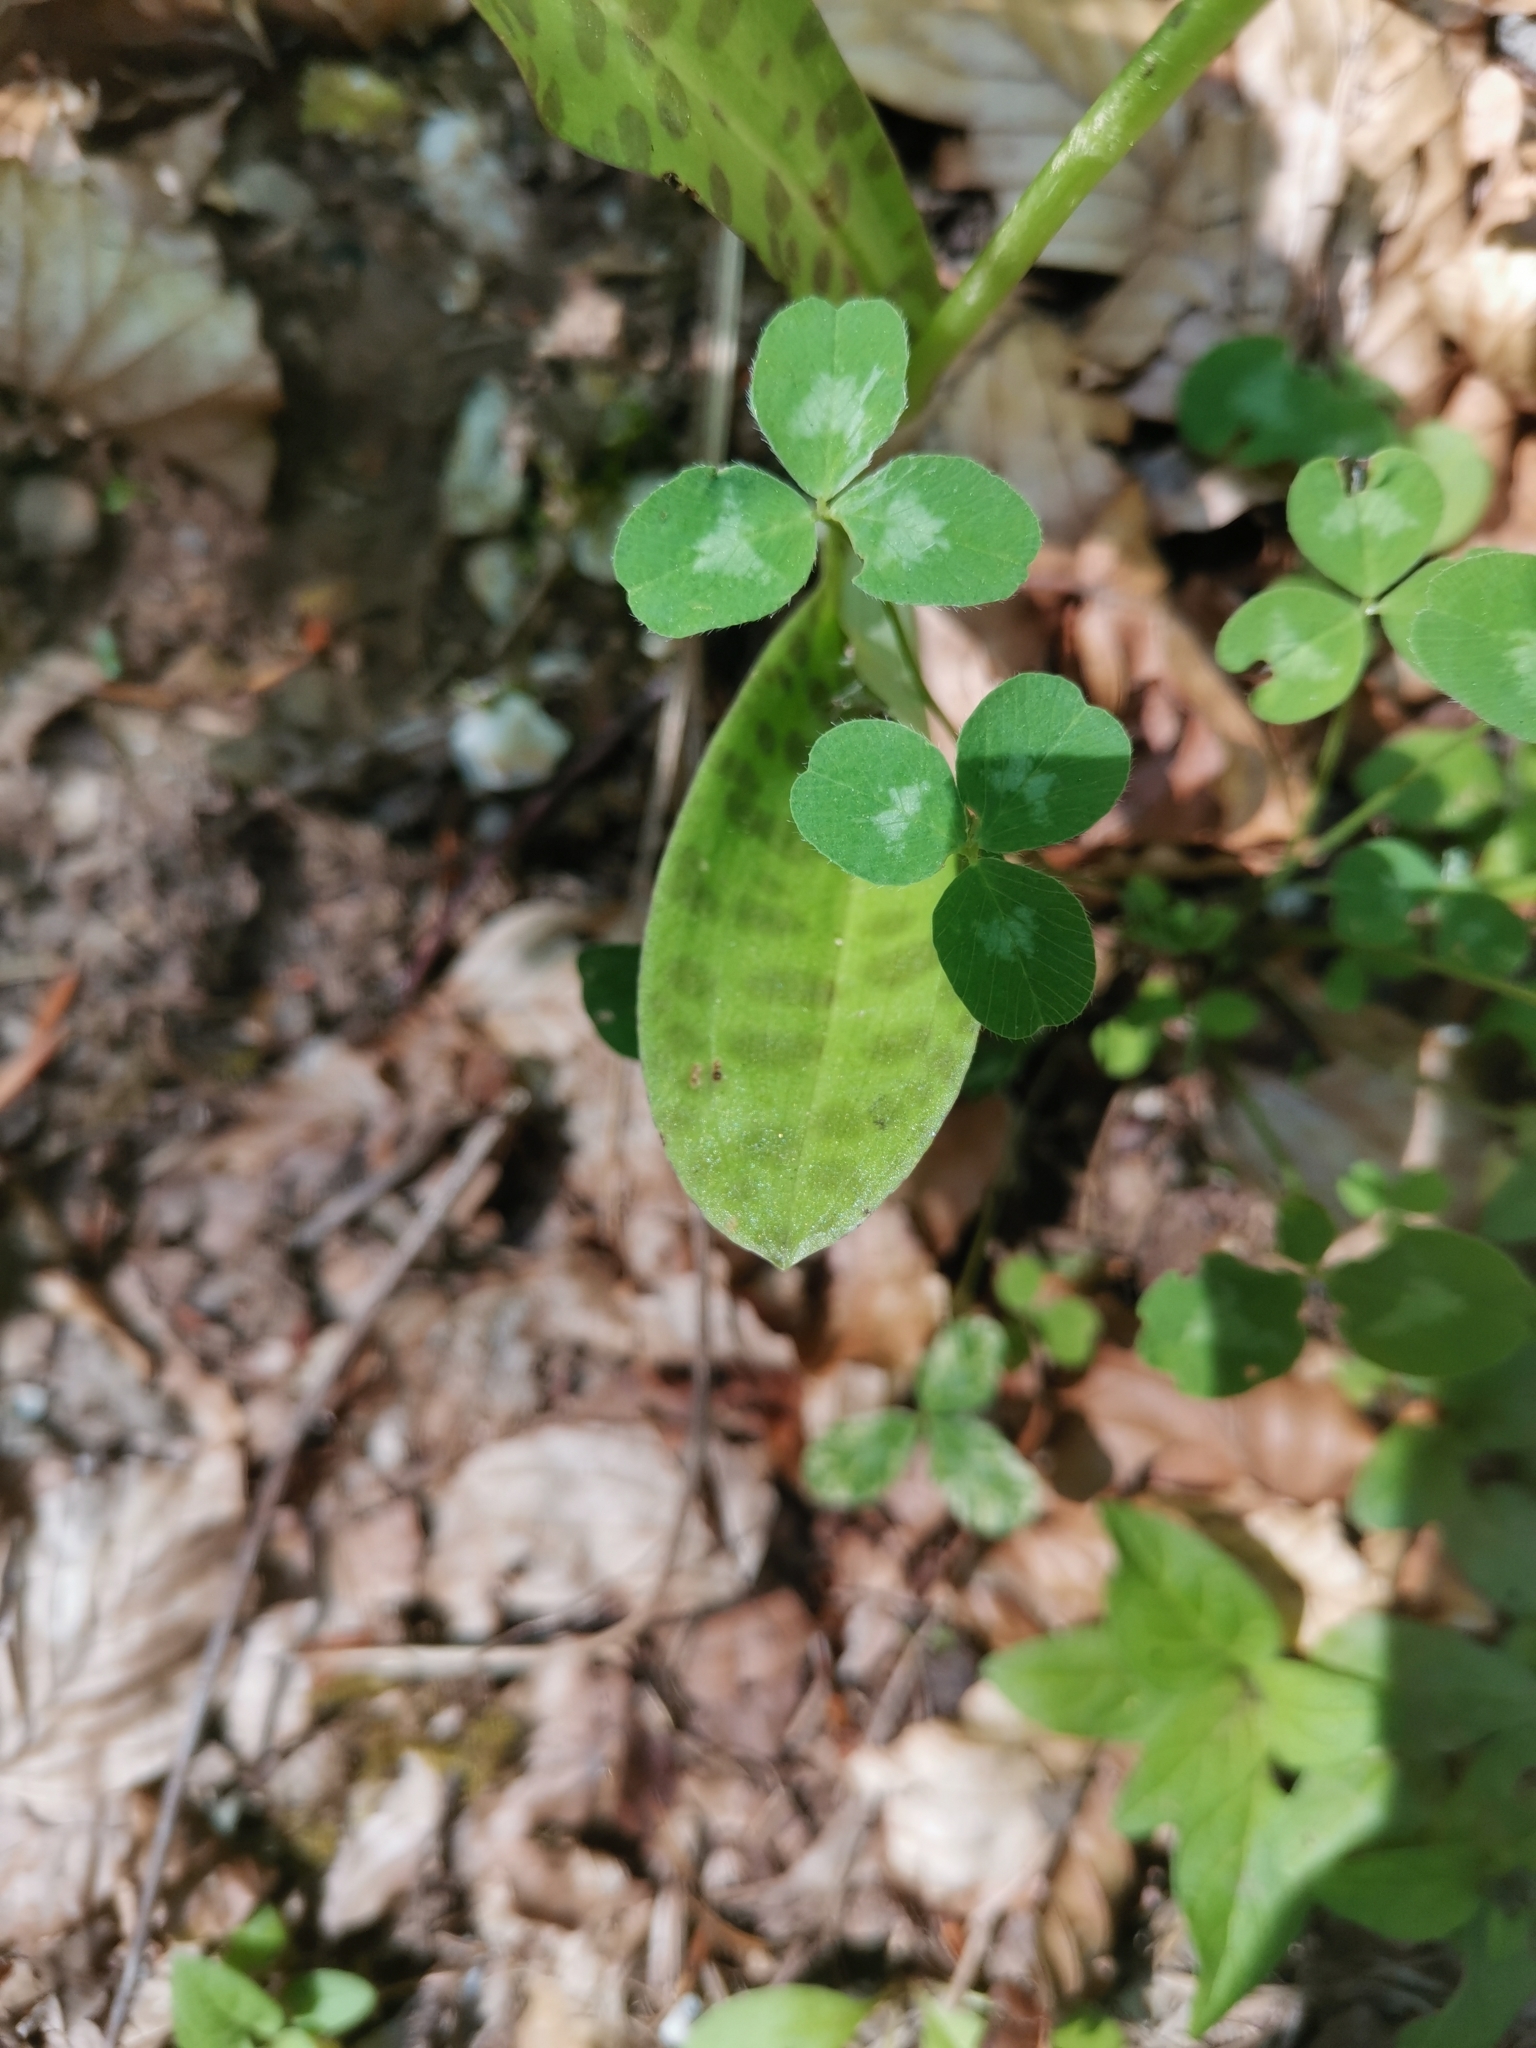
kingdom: Plantae
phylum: Tracheophyta
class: Liliopsida
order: Asparagales
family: Orchidaceae
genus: Dactylorhiza
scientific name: Dactylorhiza maculata
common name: Heath spotted-orchid
